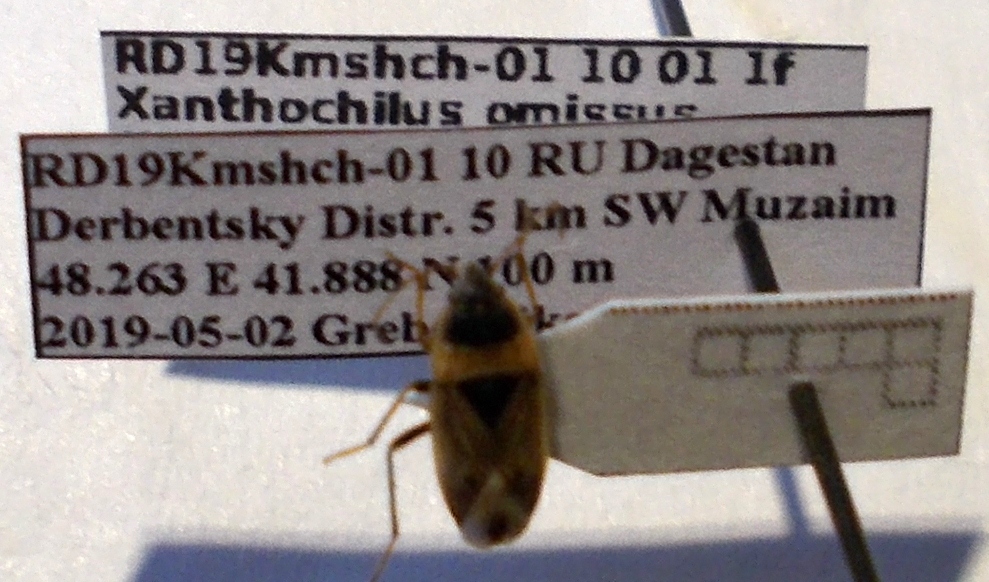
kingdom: Animalia
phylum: Arthropoda
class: Insecta
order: Hemiptera
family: Rhyparochromidae
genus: Xanthochilus
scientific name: Xanthochilus omissus
